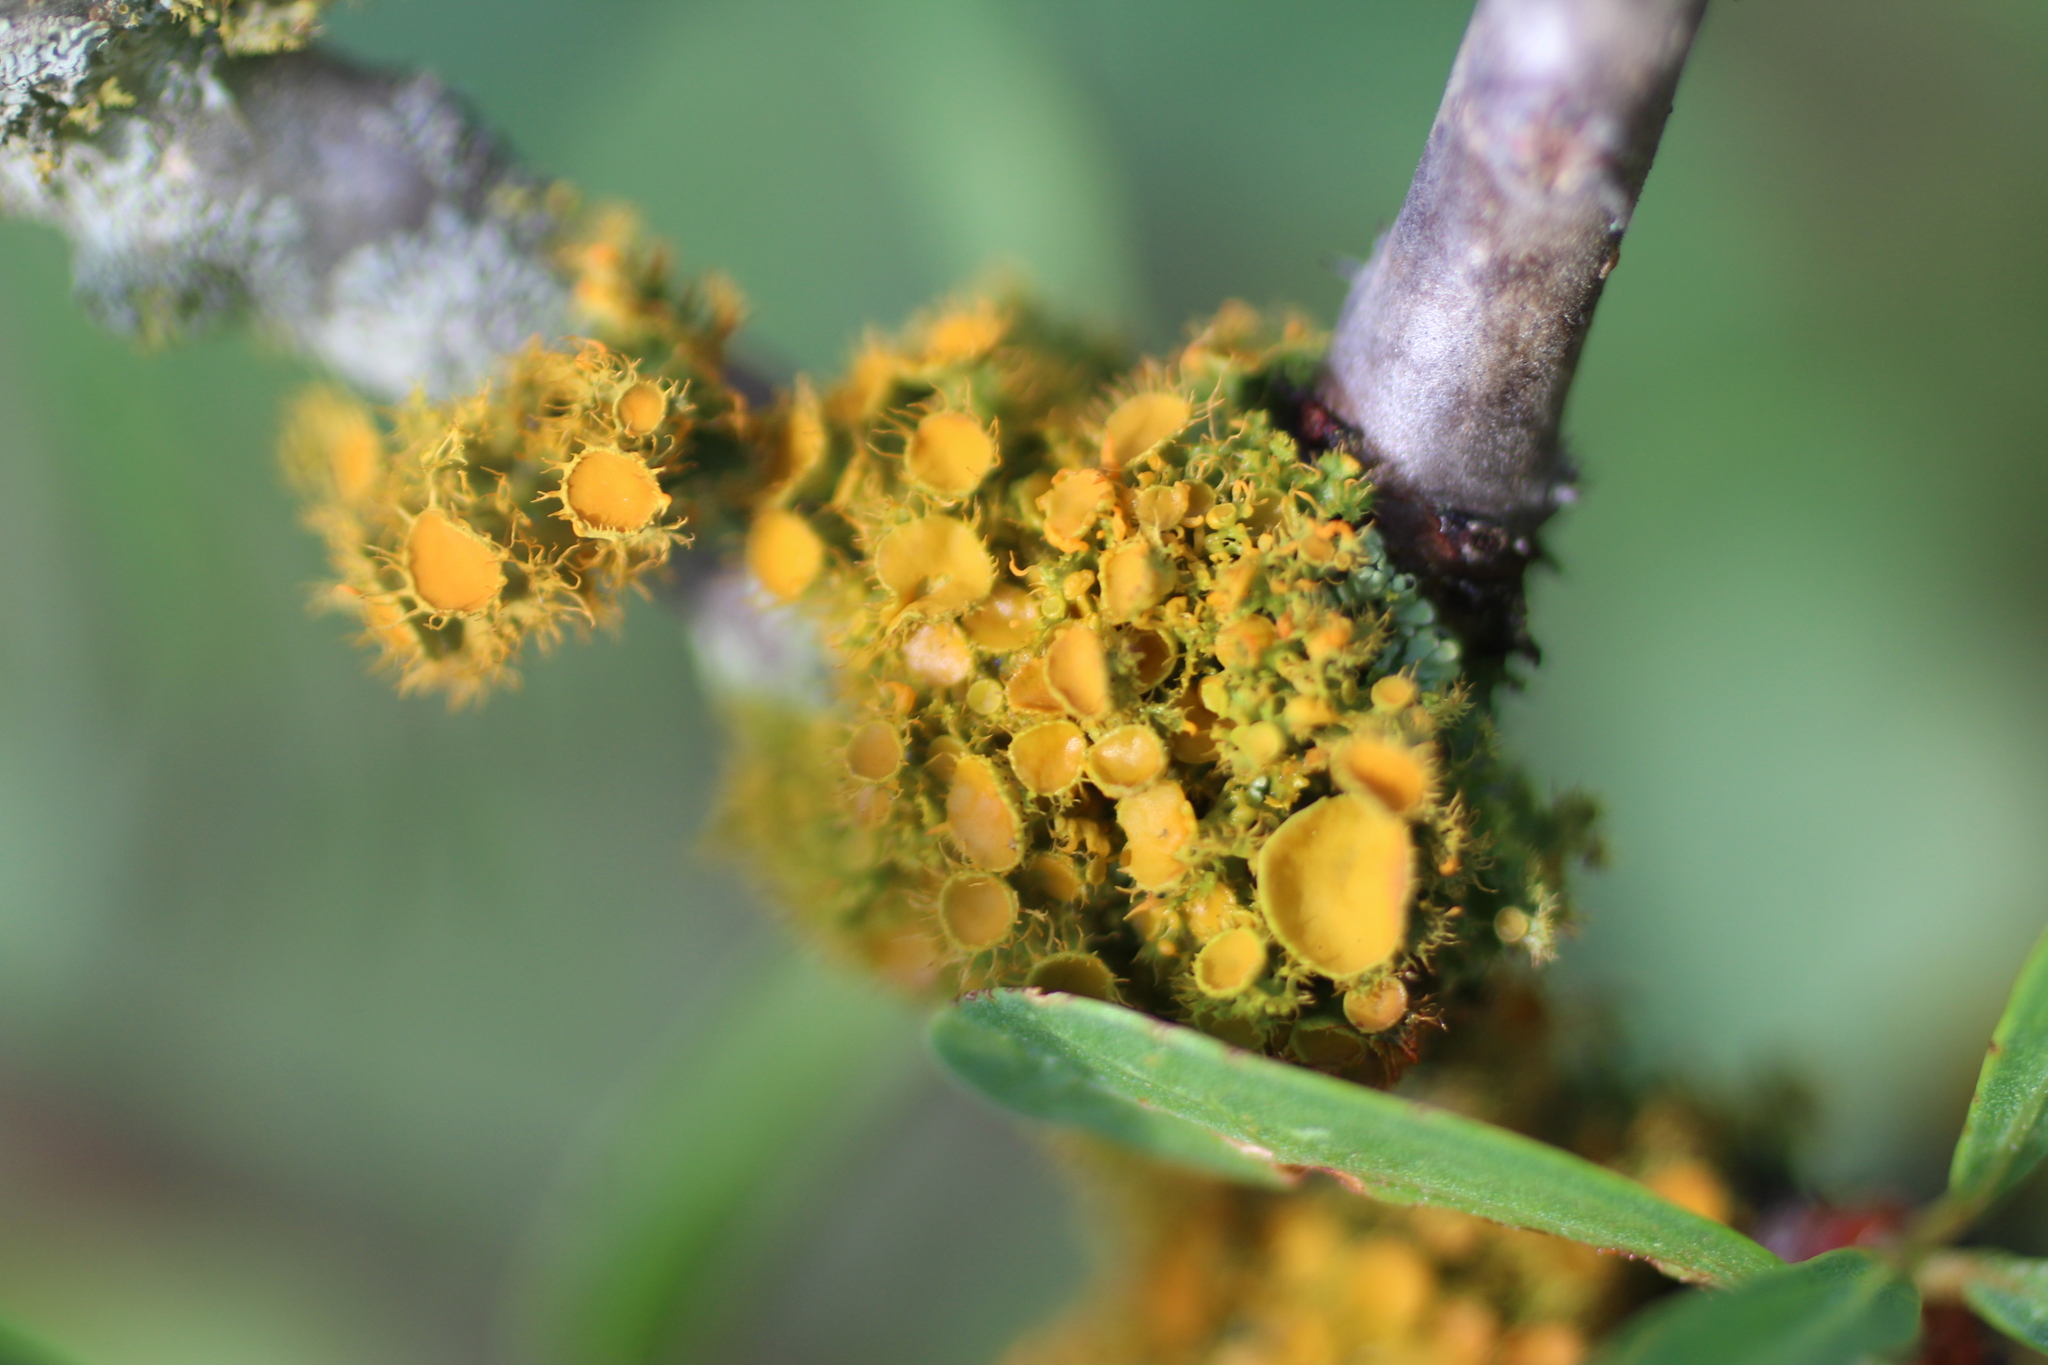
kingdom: Fungi
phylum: Ascomycota
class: Lecanoromycetes
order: Teloschistales
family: Teloschistaceae
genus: Niorma
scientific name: Niorma chrysophthalma
